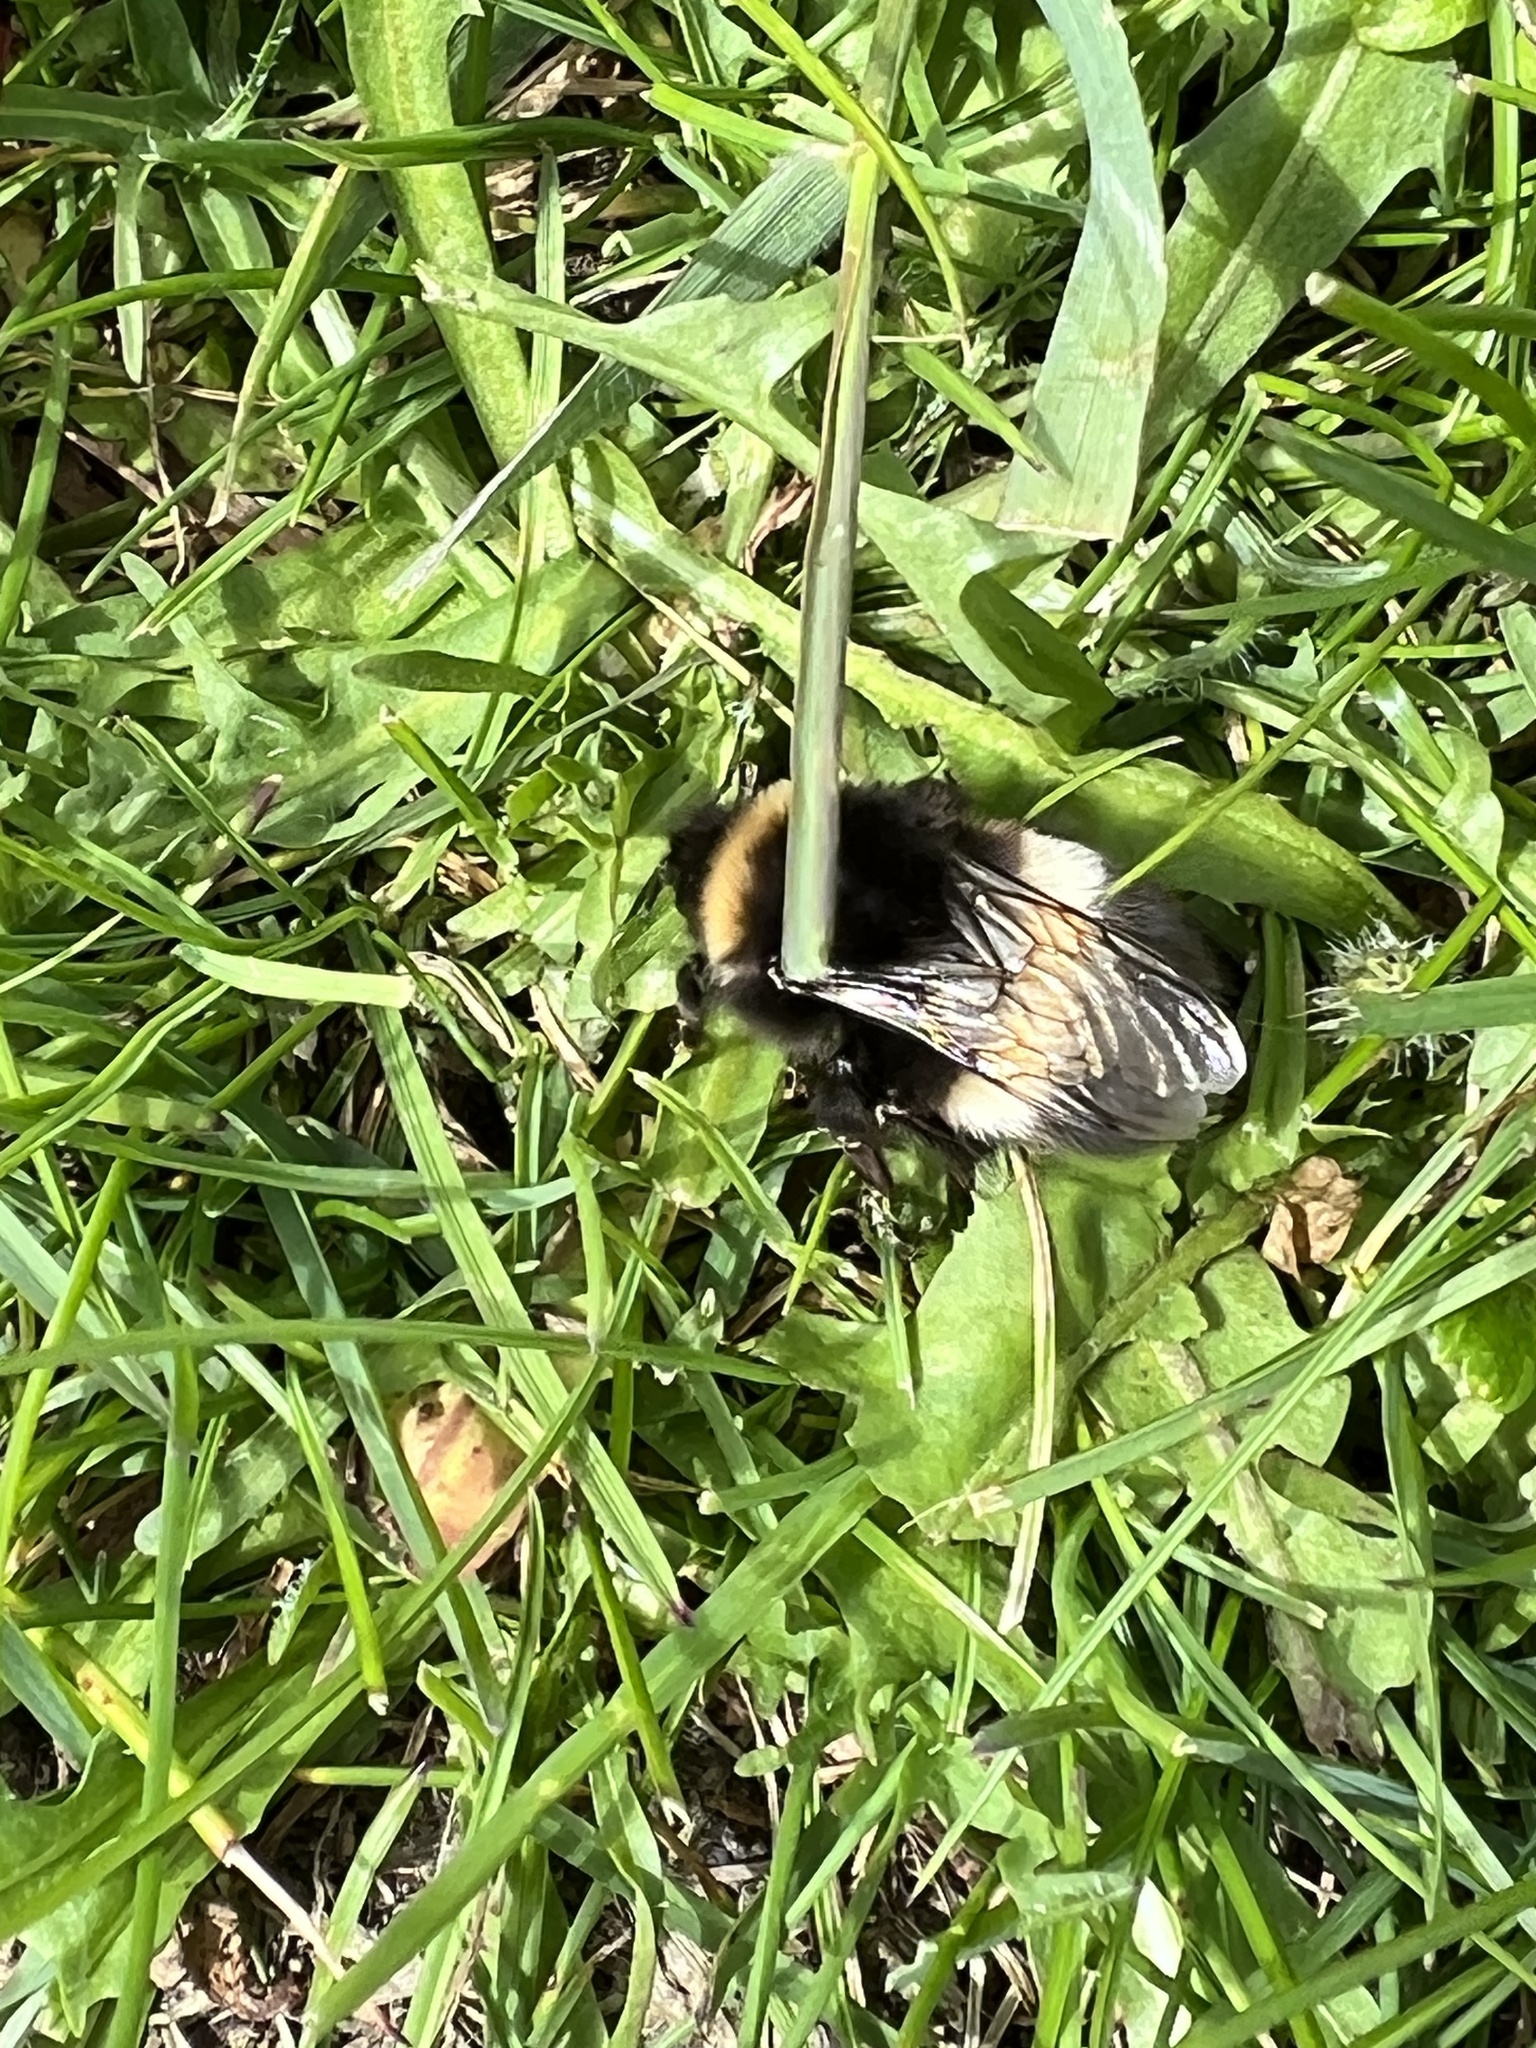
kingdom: Animalia
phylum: Arthropoda
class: Insecta
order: Hymenoptera
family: Apidae
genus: Bombus
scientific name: Bombus lucorum
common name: White-tailed bumblebee
